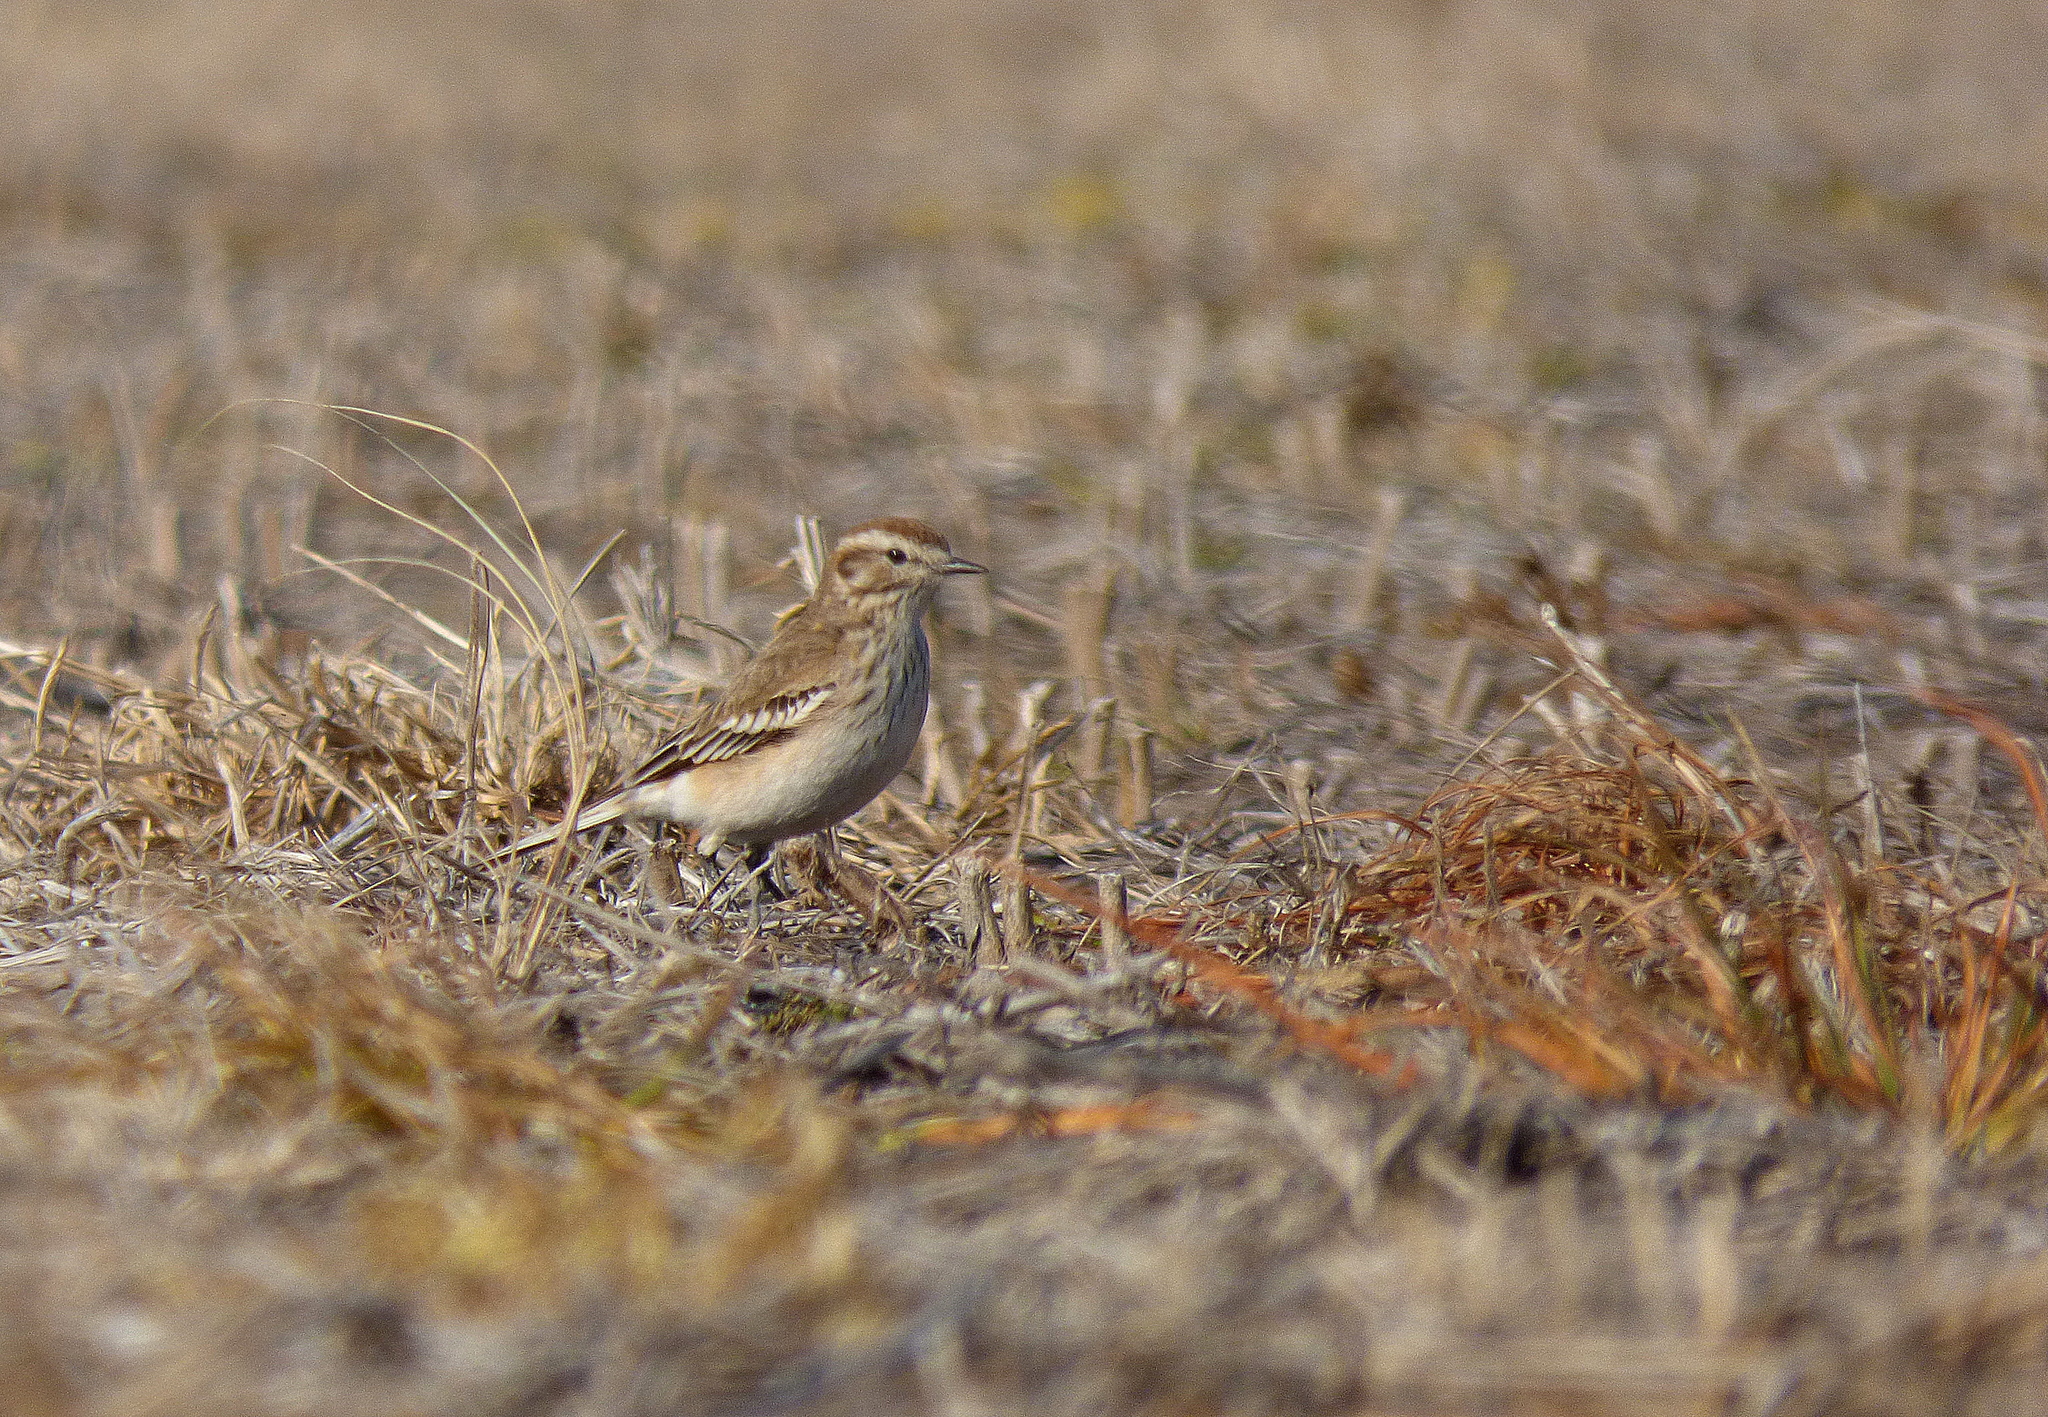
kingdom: Animalia
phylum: Chordata
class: Aves
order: Passeriformes
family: Tyrannidae
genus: Xolmis
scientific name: Xolmis rubetra
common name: Rusty-backed monjita
